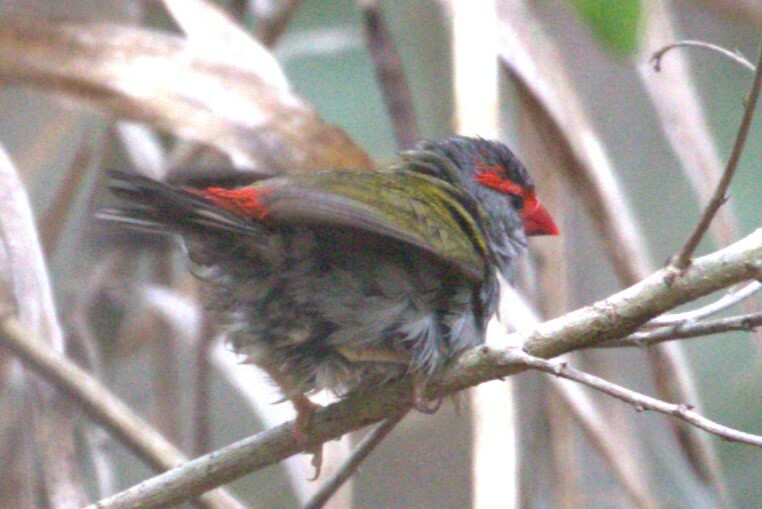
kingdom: Animalia
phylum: Chordata
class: Aves
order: Passeriformes
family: Estrildidae
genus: Neochmia
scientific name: Neochmia temporalis
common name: Red-browed finch
